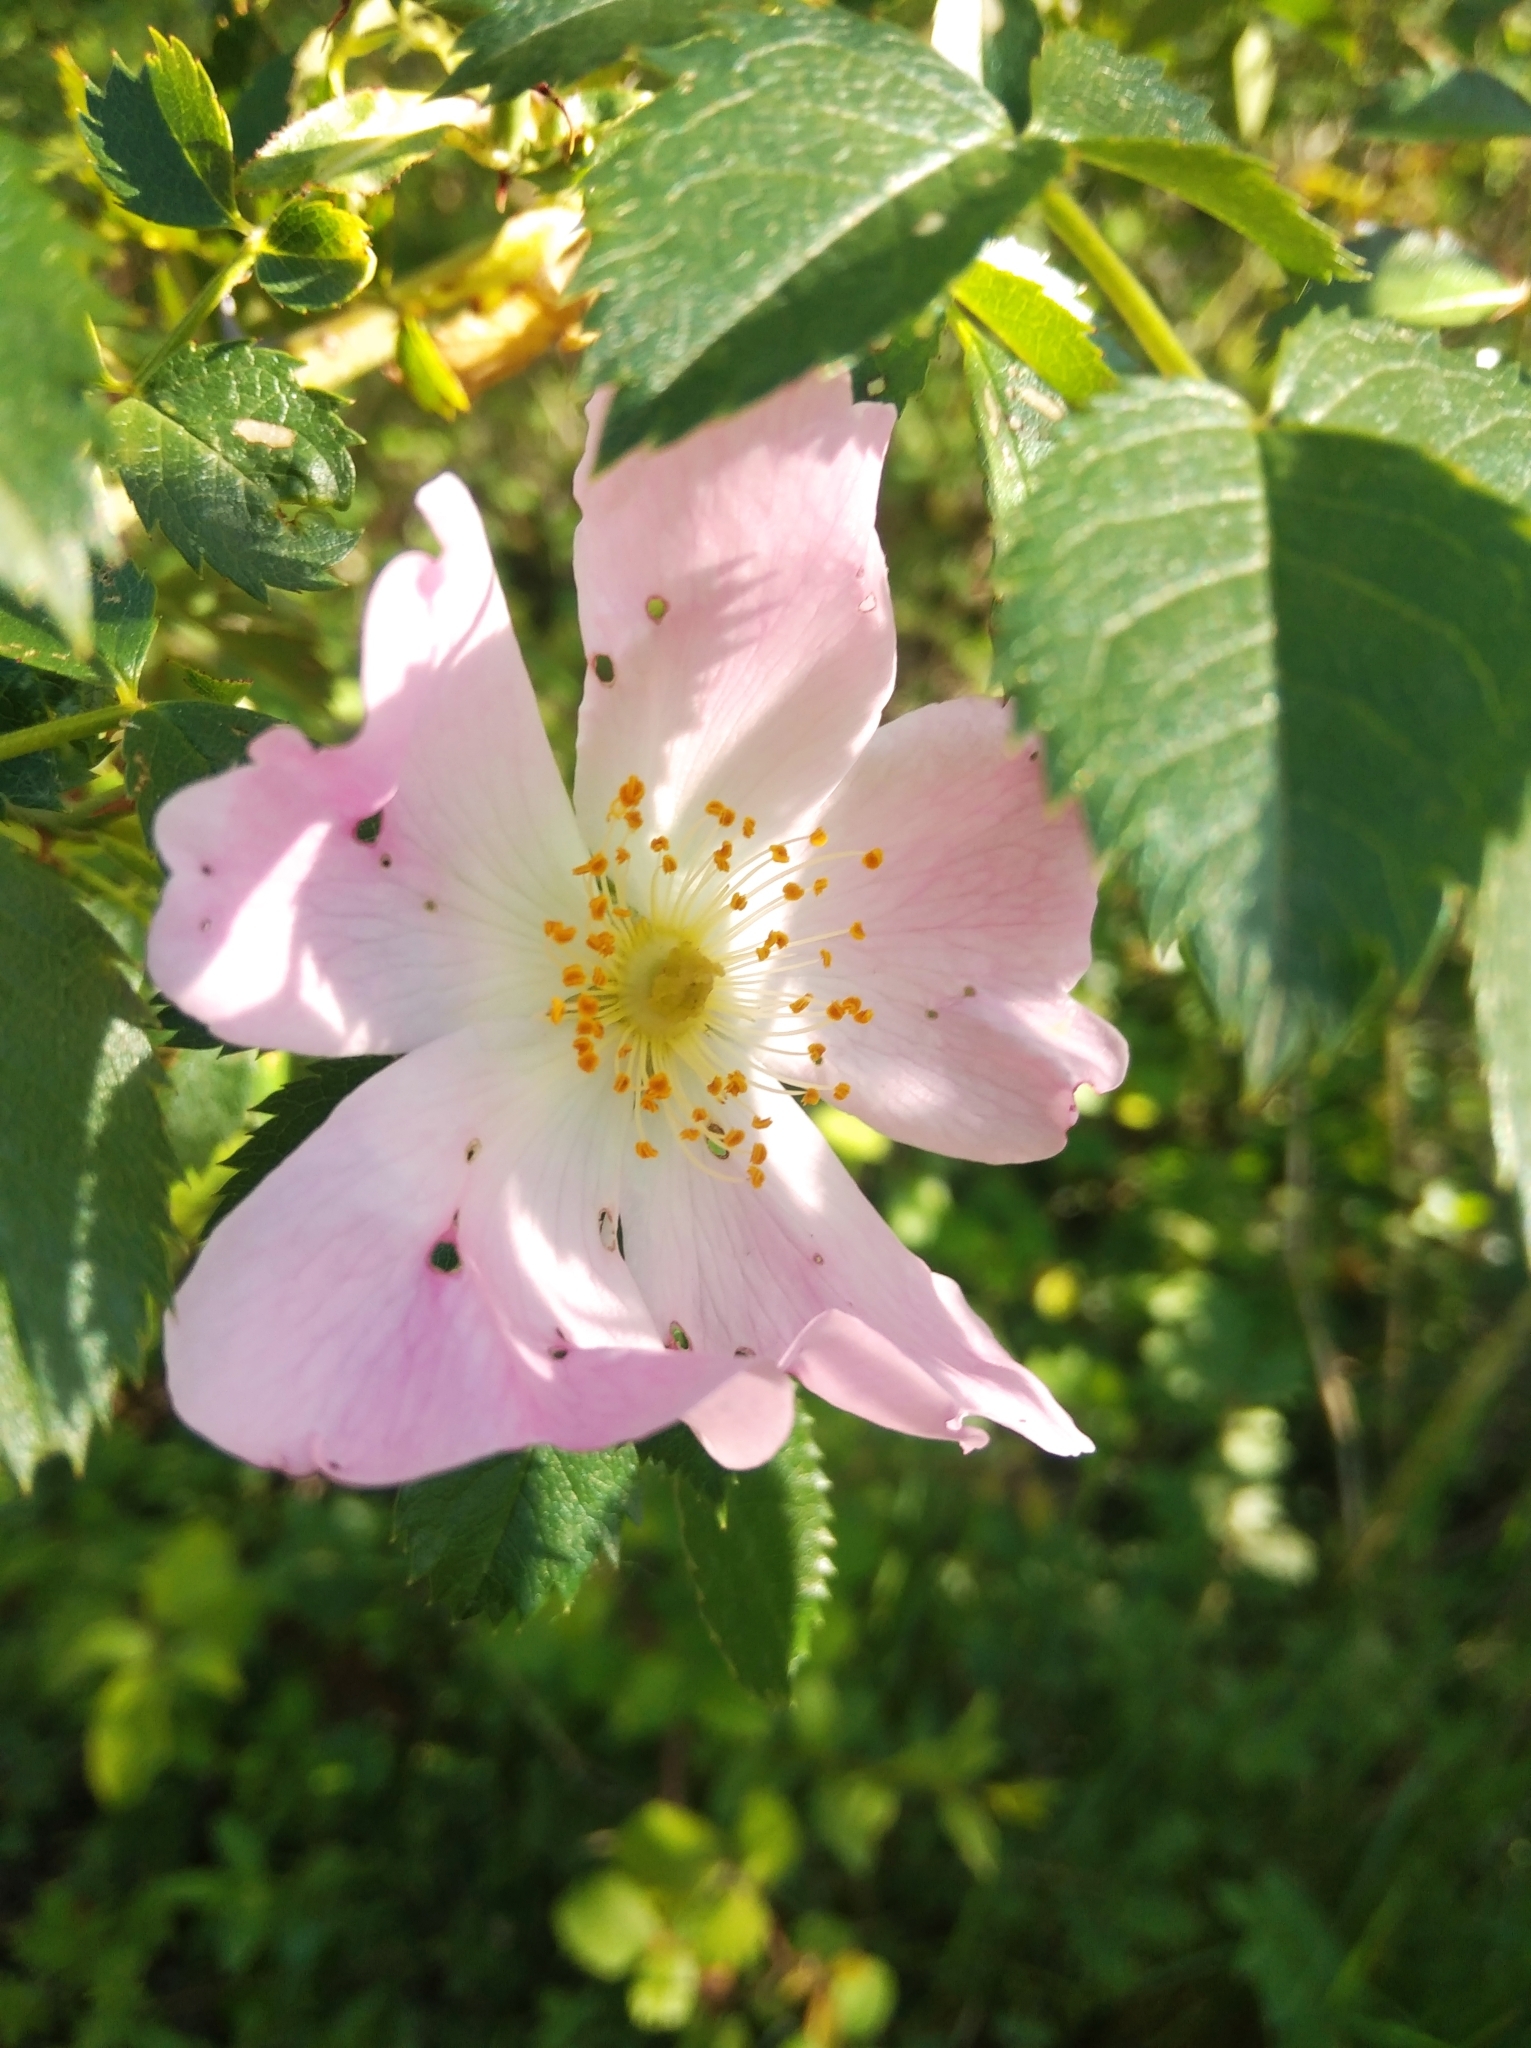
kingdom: Plantae
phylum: Tracheophyta
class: Magnoliopsida
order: Rosales
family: Rosaceae
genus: Rosa
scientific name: Rosa canina
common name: Dog rose
